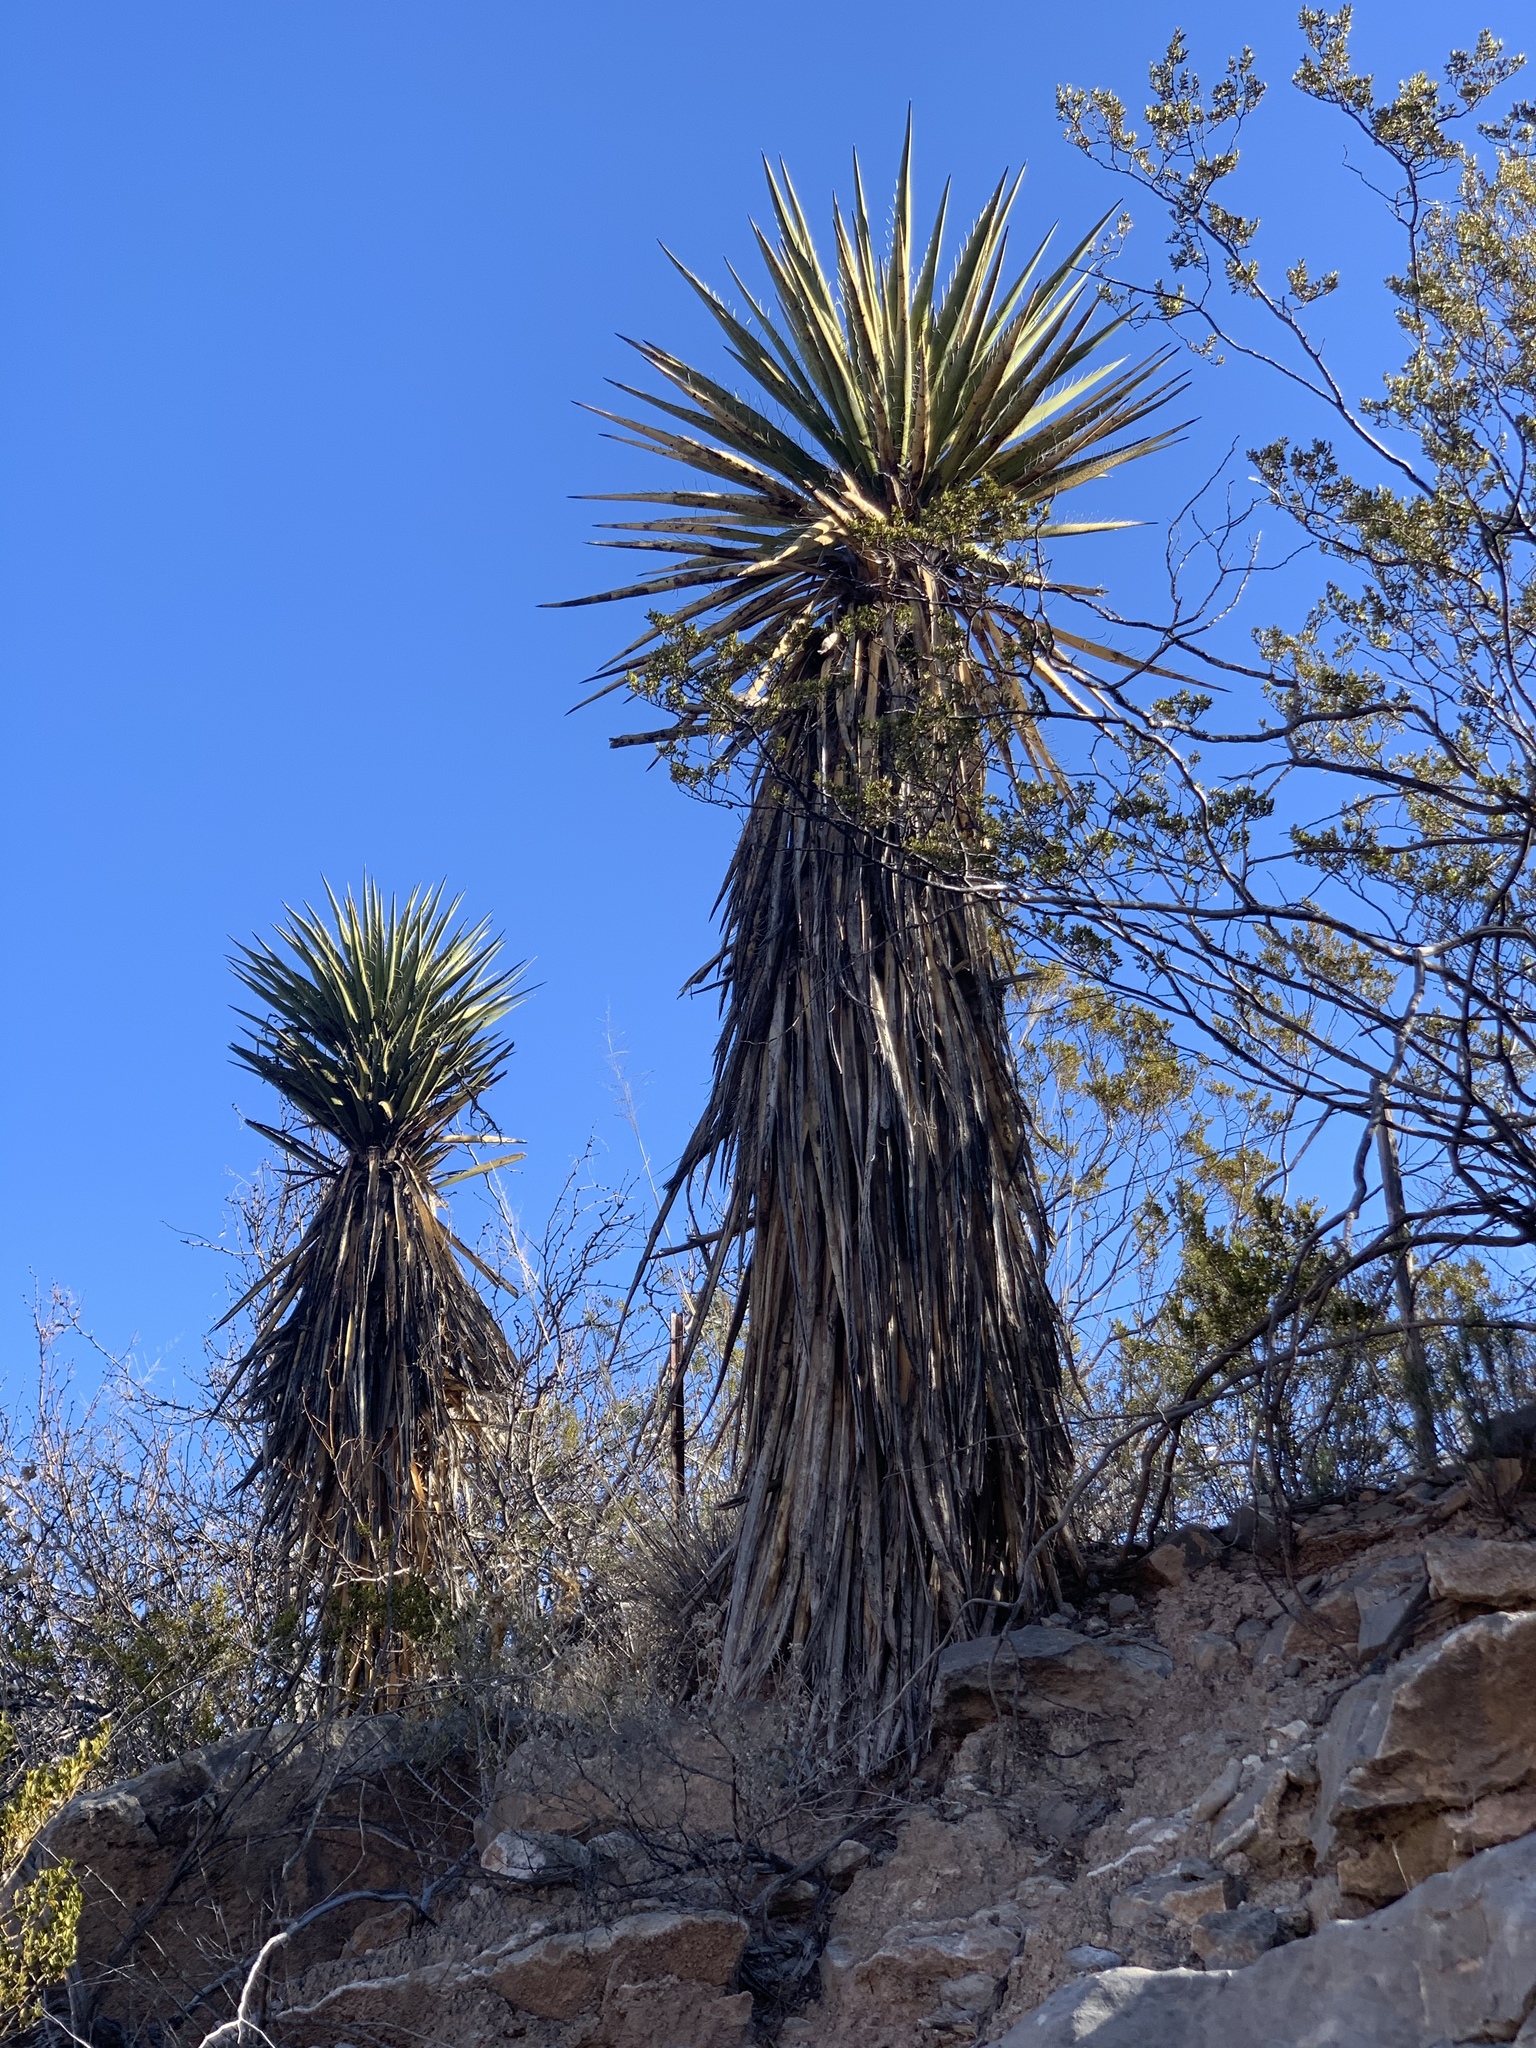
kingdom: Plantae
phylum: Tracheophyta
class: Liliopsida
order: Asparagales
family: Asparagaceae
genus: Yucca
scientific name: Yucca treculiana
